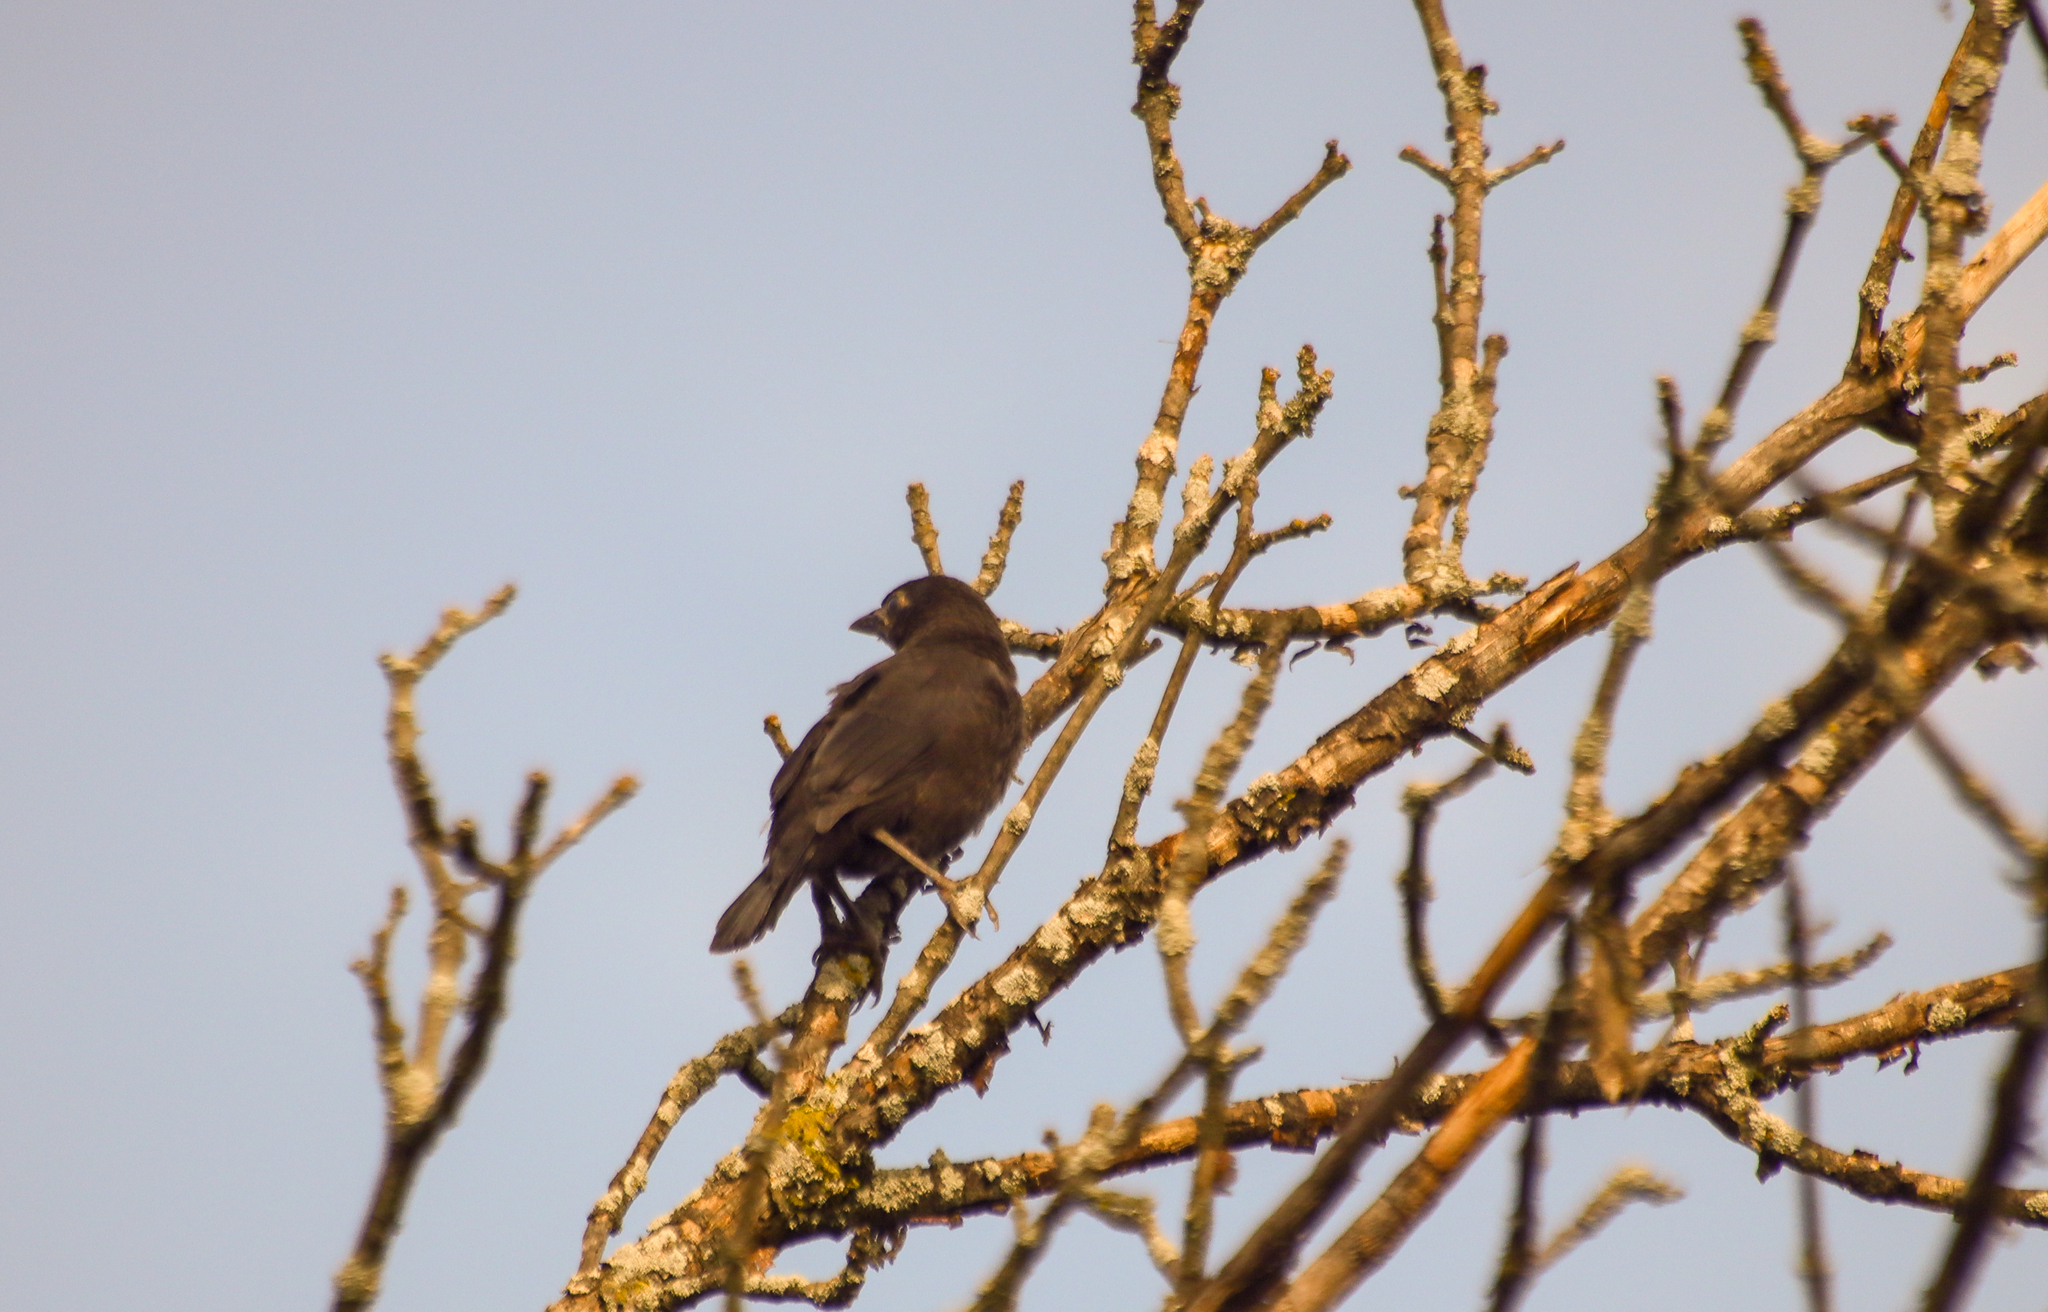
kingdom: Animalia
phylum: Chordata
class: Aves
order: Passeriformes
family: Corvidae
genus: Corvus
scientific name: Corvus brachyrhynchos
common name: American crow
